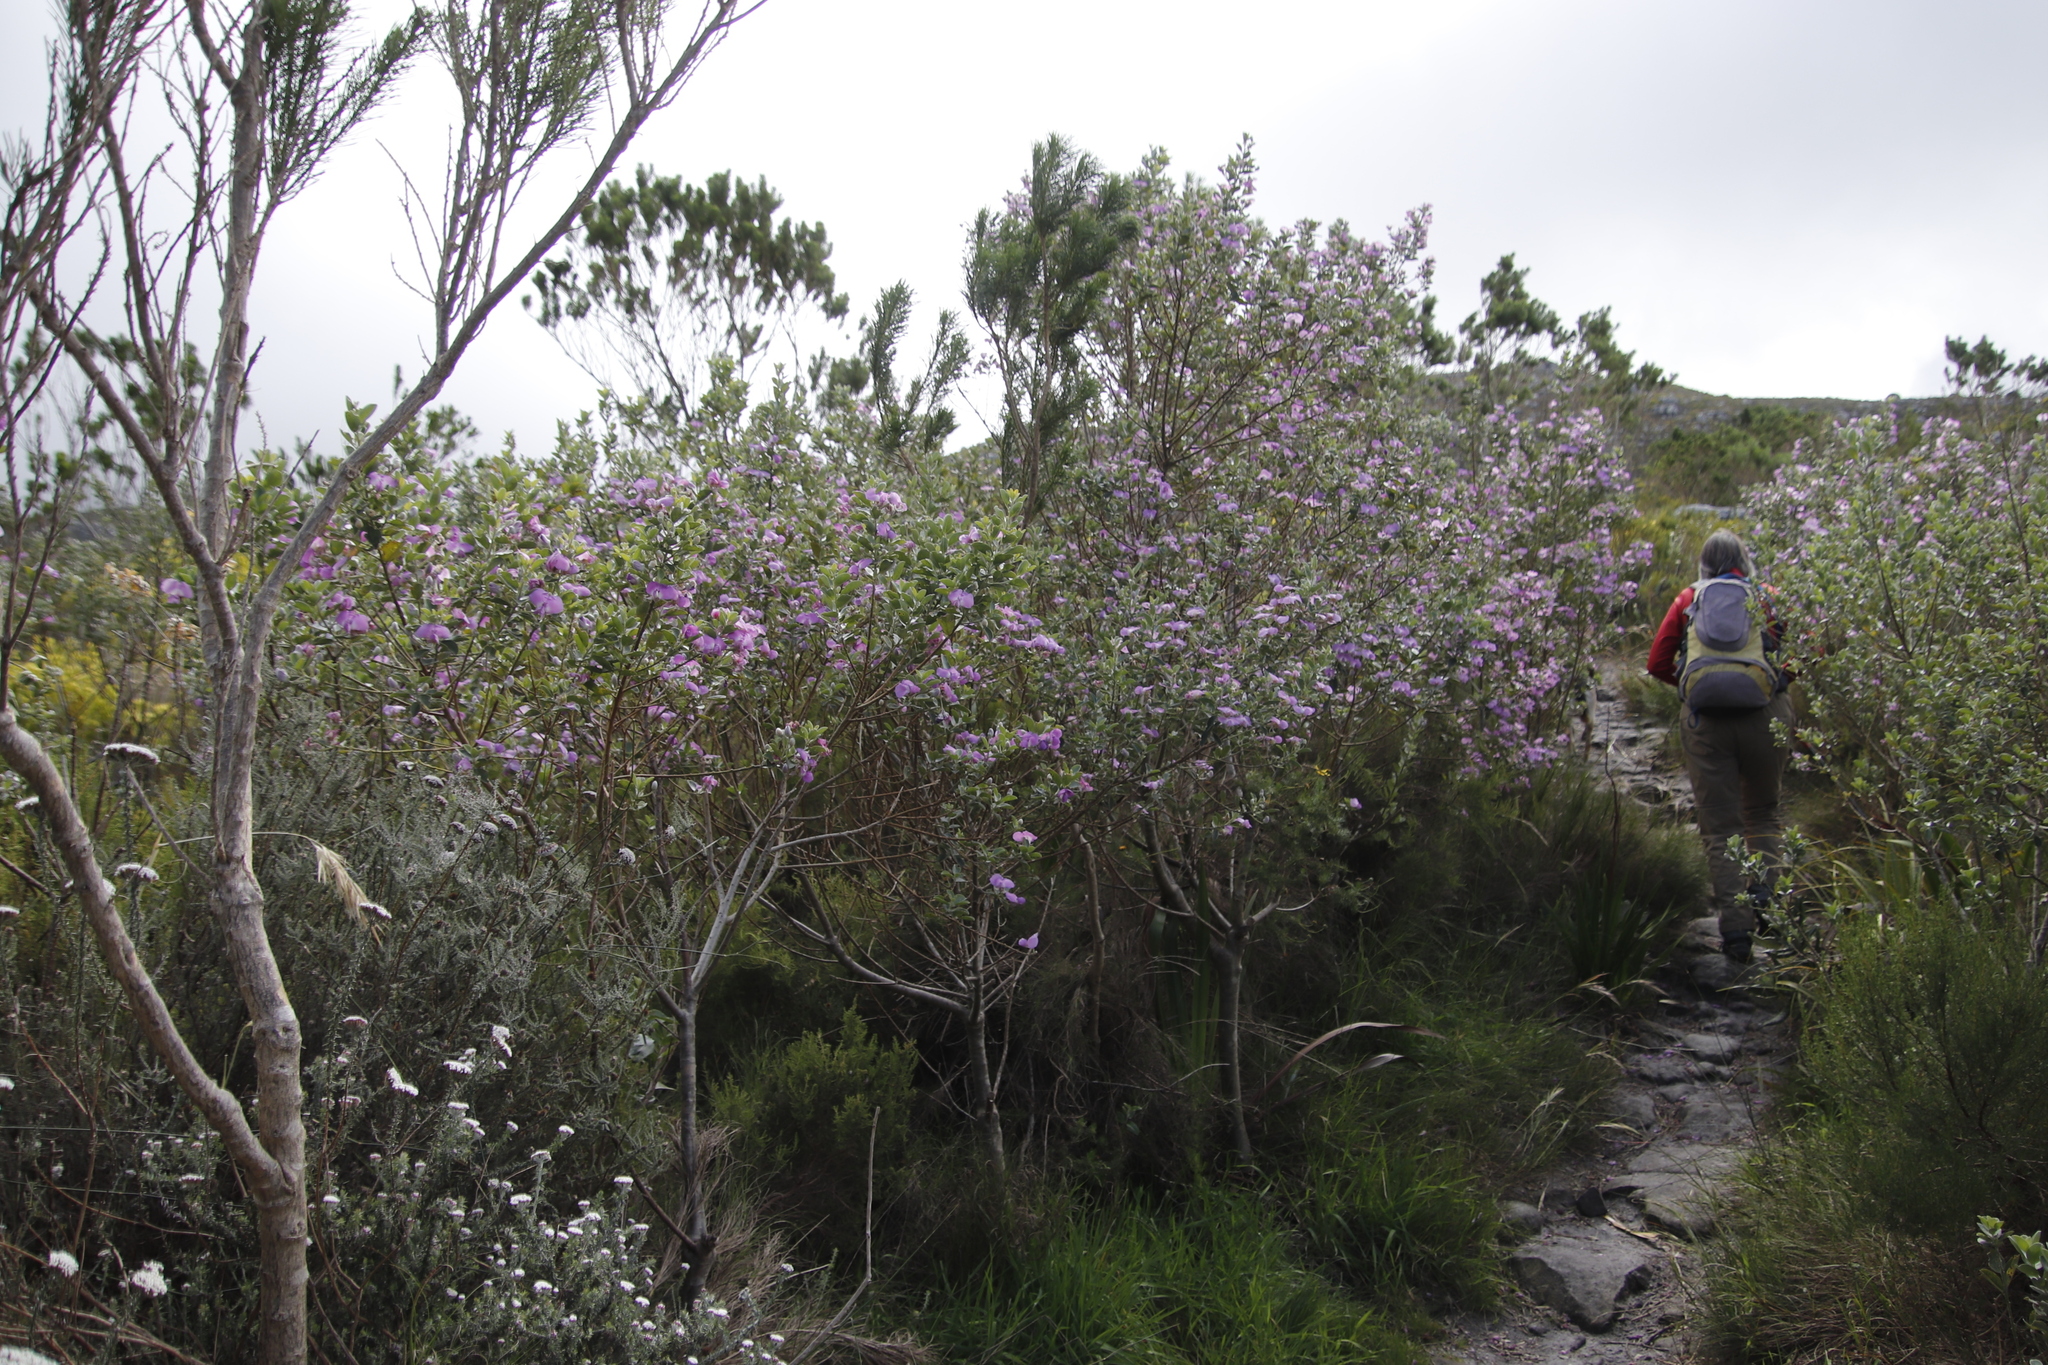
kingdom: Plantae
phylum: Tracheophyta
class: Magnoliopsida
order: Fabales
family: Fabaceae
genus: Podalyria
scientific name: Podalyria calyptrata
